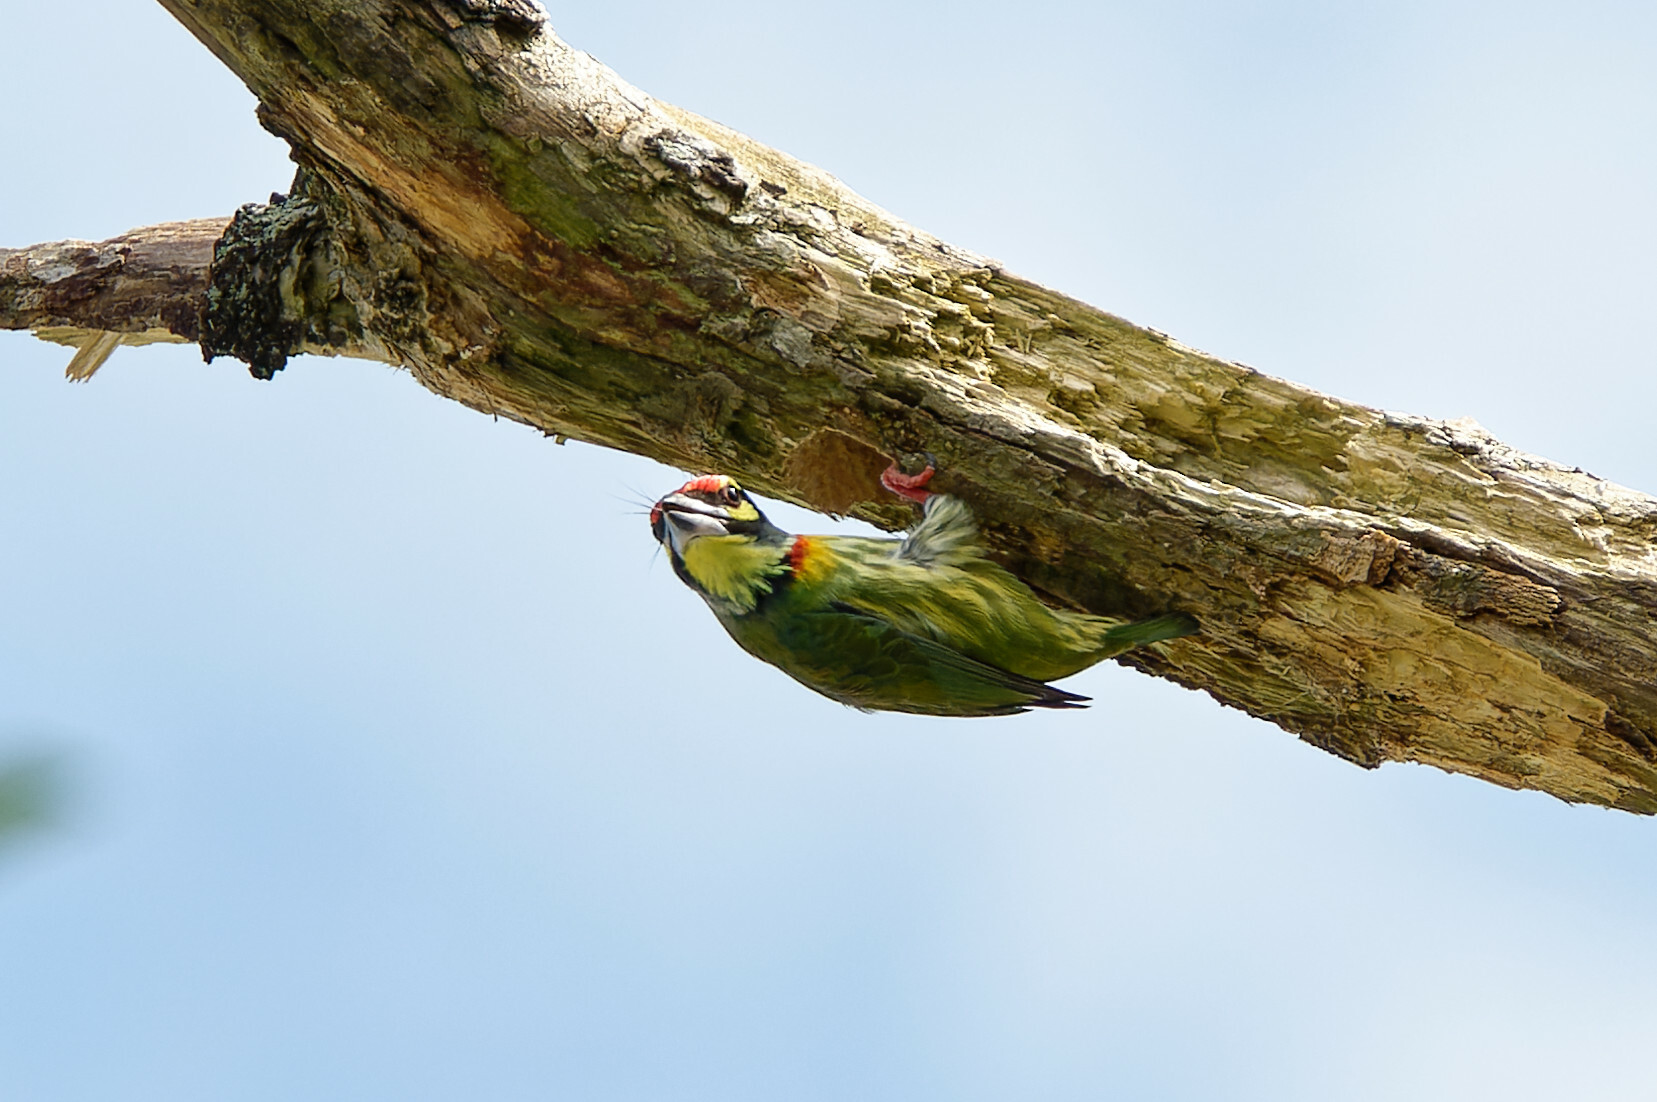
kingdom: Animalia
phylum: Chordata
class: Aves
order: Piciformes
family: Megalaimidae
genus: Psilopogon
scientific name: Psilopogon haemacephalus
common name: Coppersmith barbet
